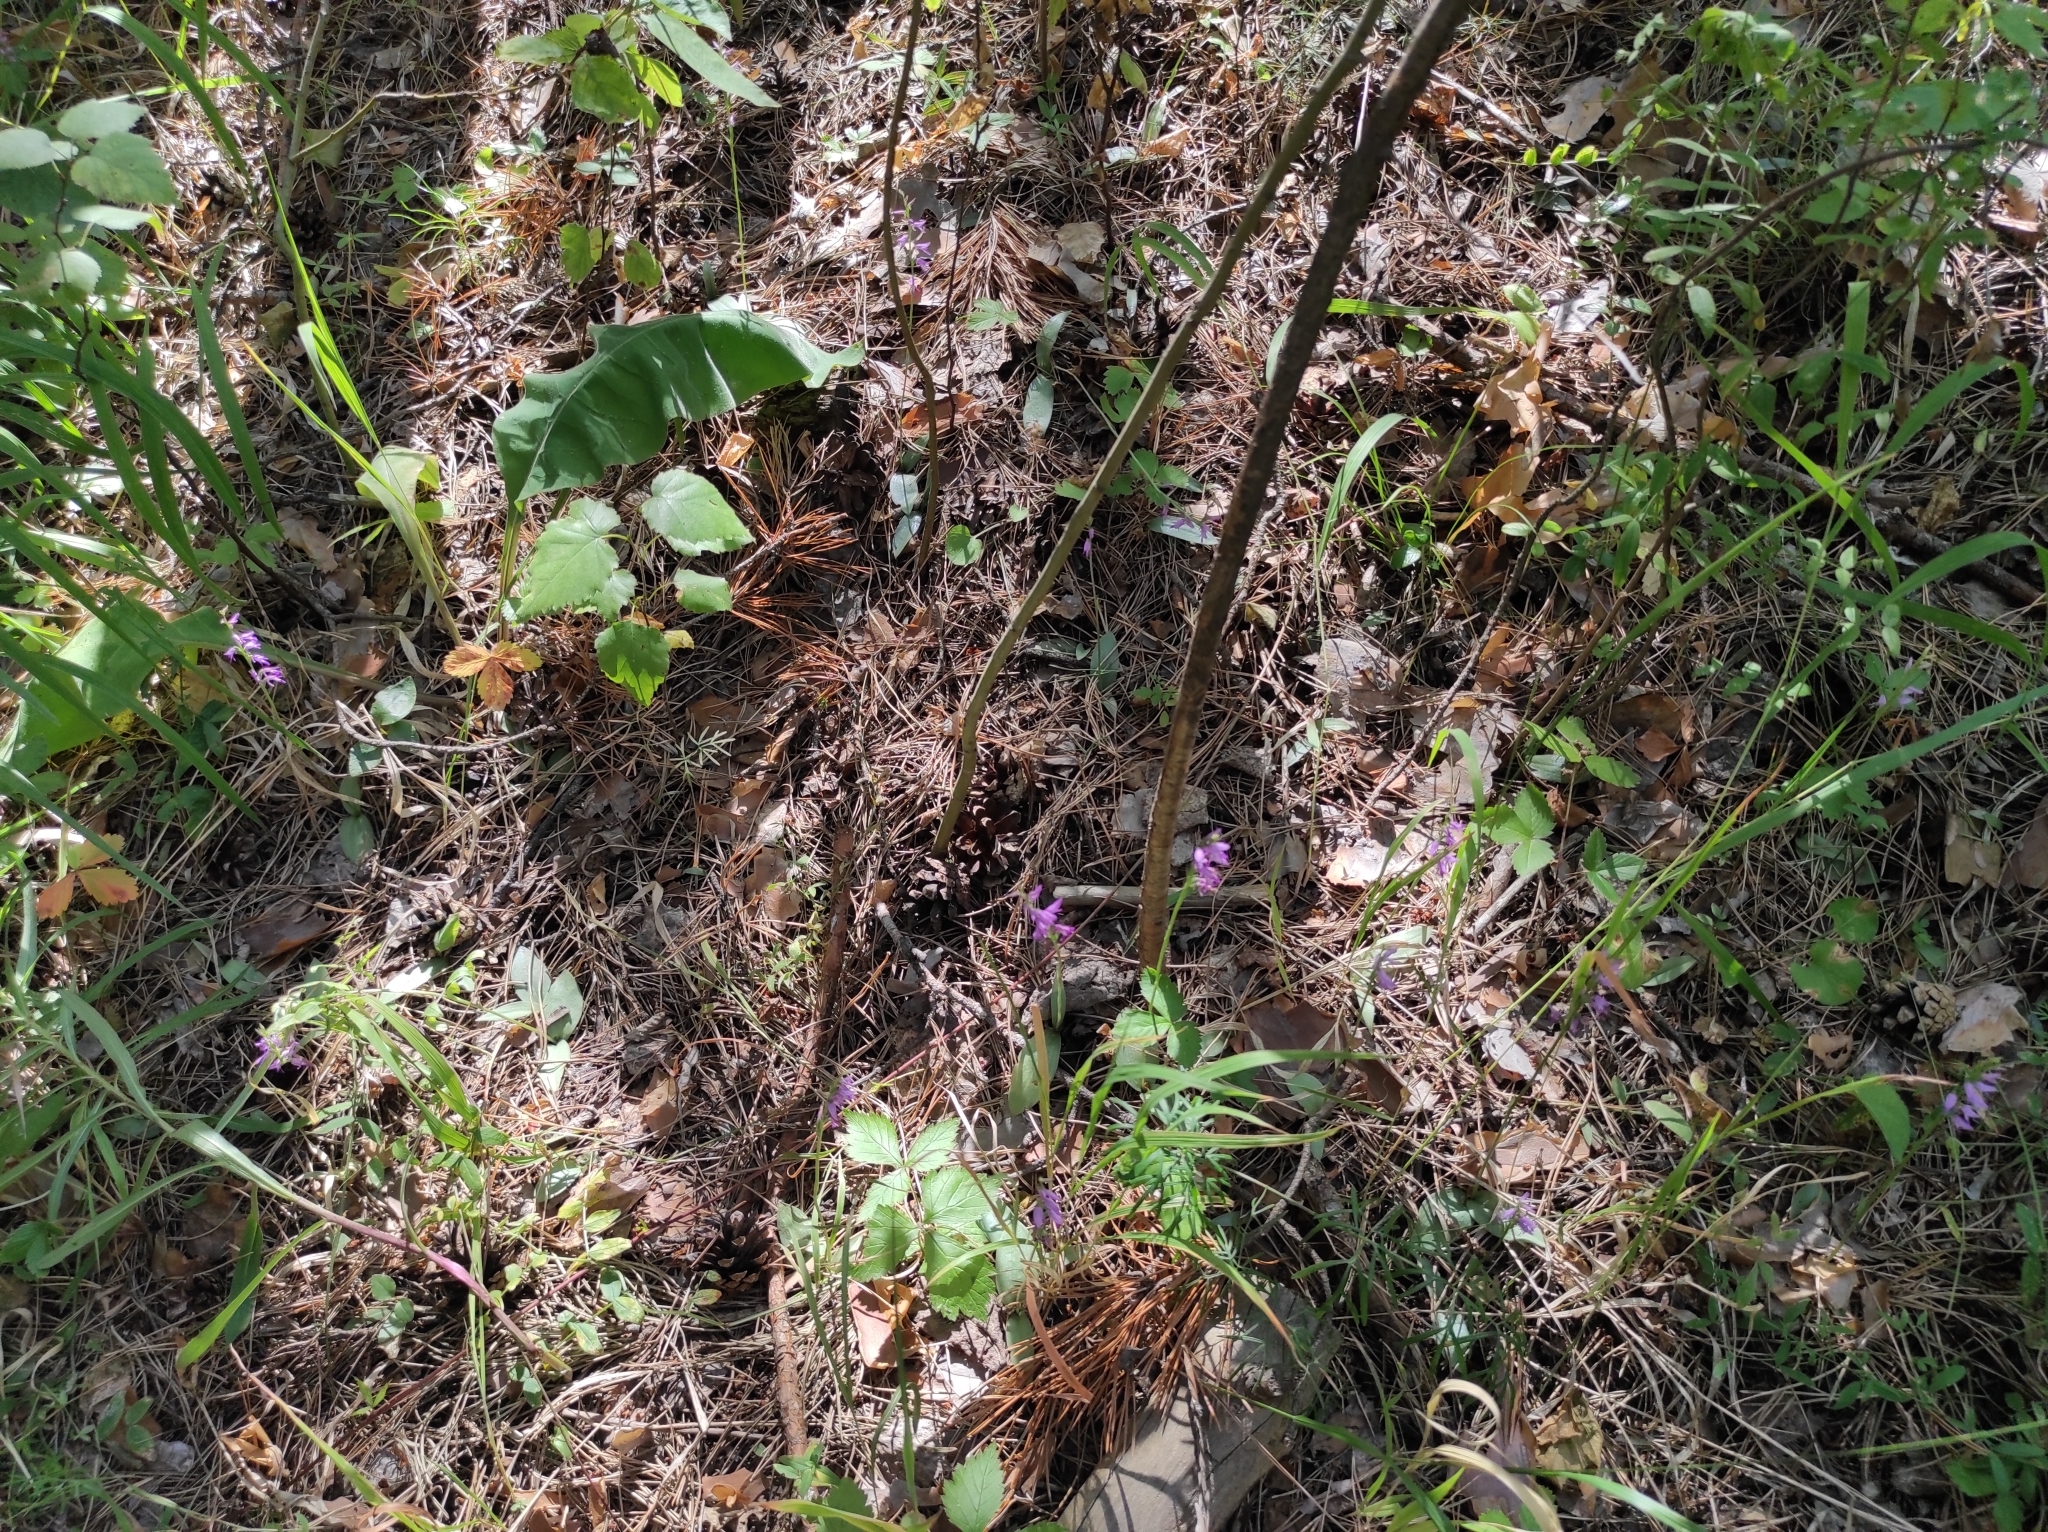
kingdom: Plantae
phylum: Tracheophyta
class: Liliopsida
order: Asparagales
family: Orchidaceae
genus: Hemipilia
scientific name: Hemipilia cucullata
